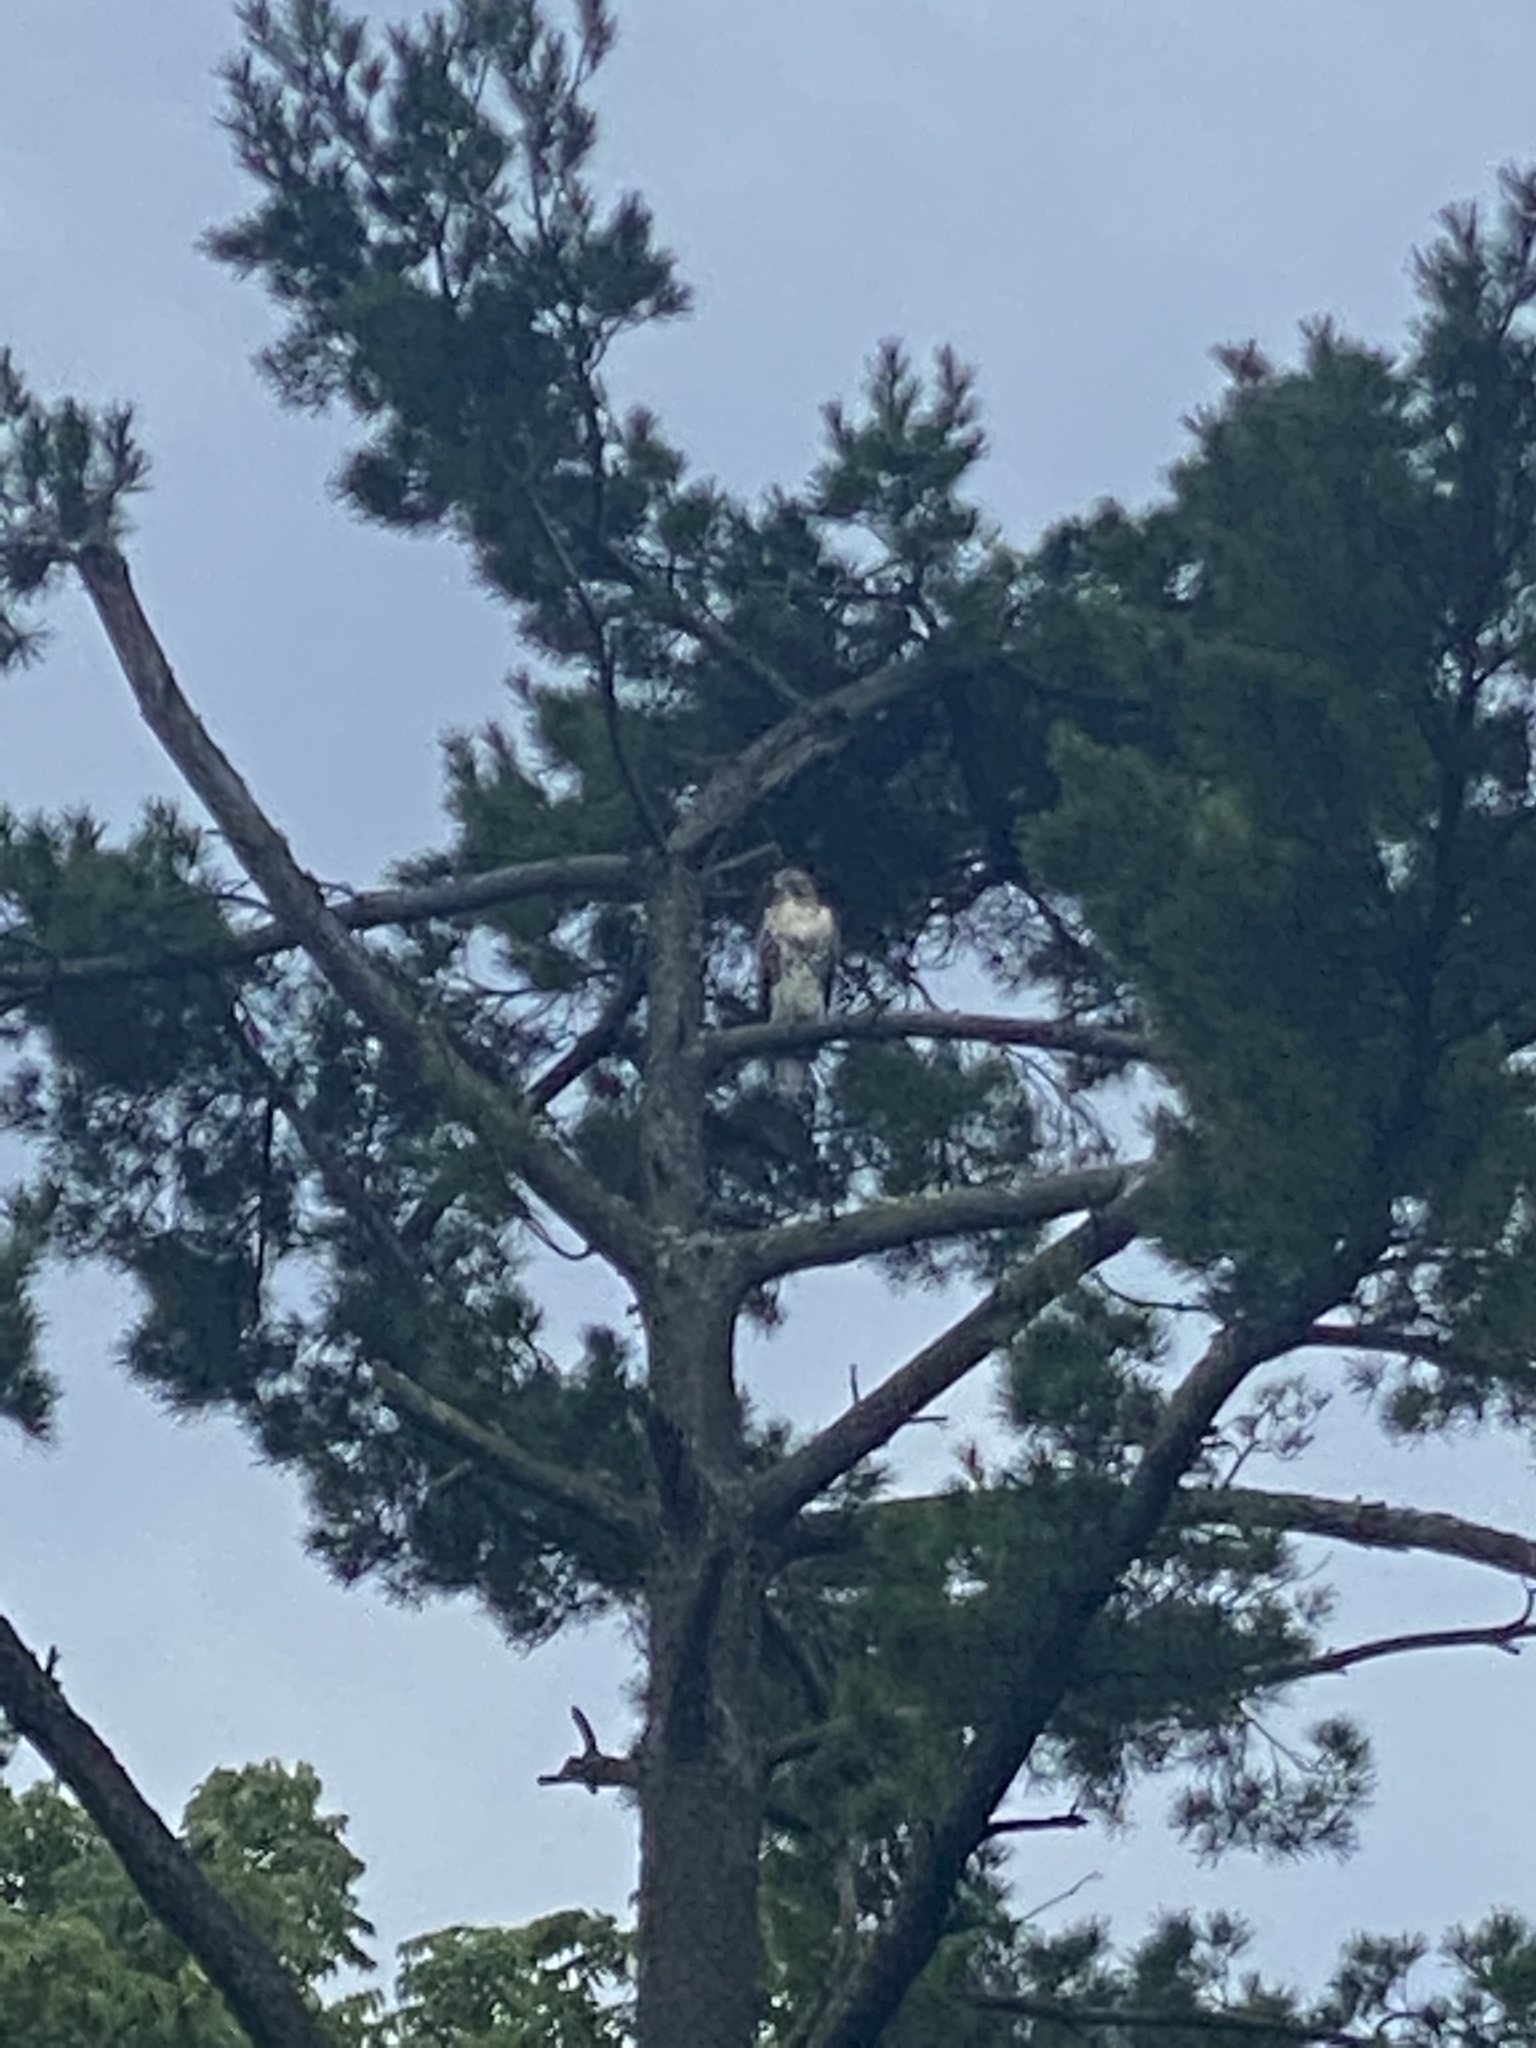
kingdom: Animalia
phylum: Chordata
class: Aves
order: Accipitriformes
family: Accipitridae
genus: Buteo
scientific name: Buteo jamaicensis
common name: Red-tailed hawk
